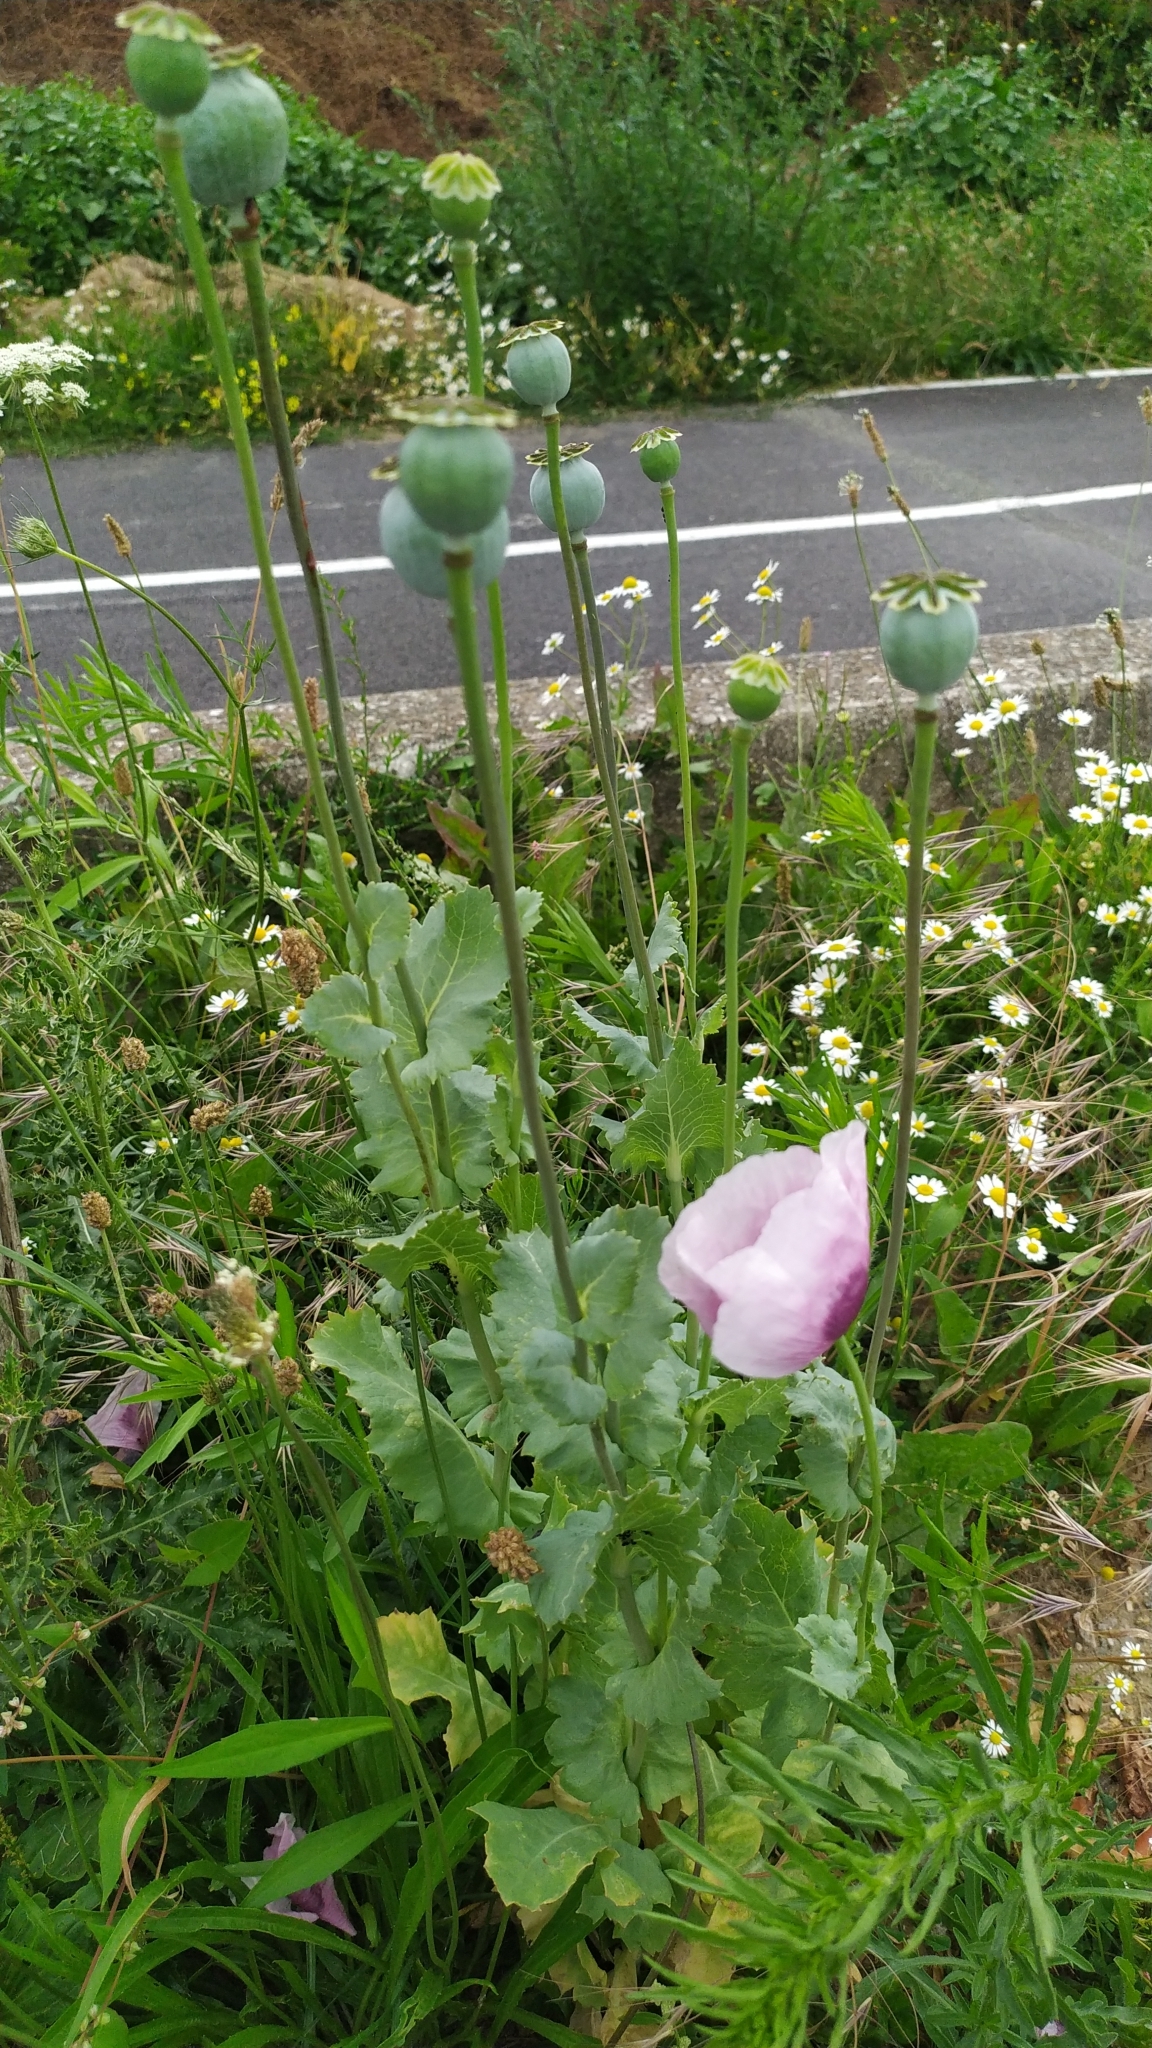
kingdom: Plantae
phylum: Tracheophyta
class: Magnoliopsida
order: Ranunculales
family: Papaveraceae
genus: Papaver
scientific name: Papaver somniferum
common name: Opium poppy
